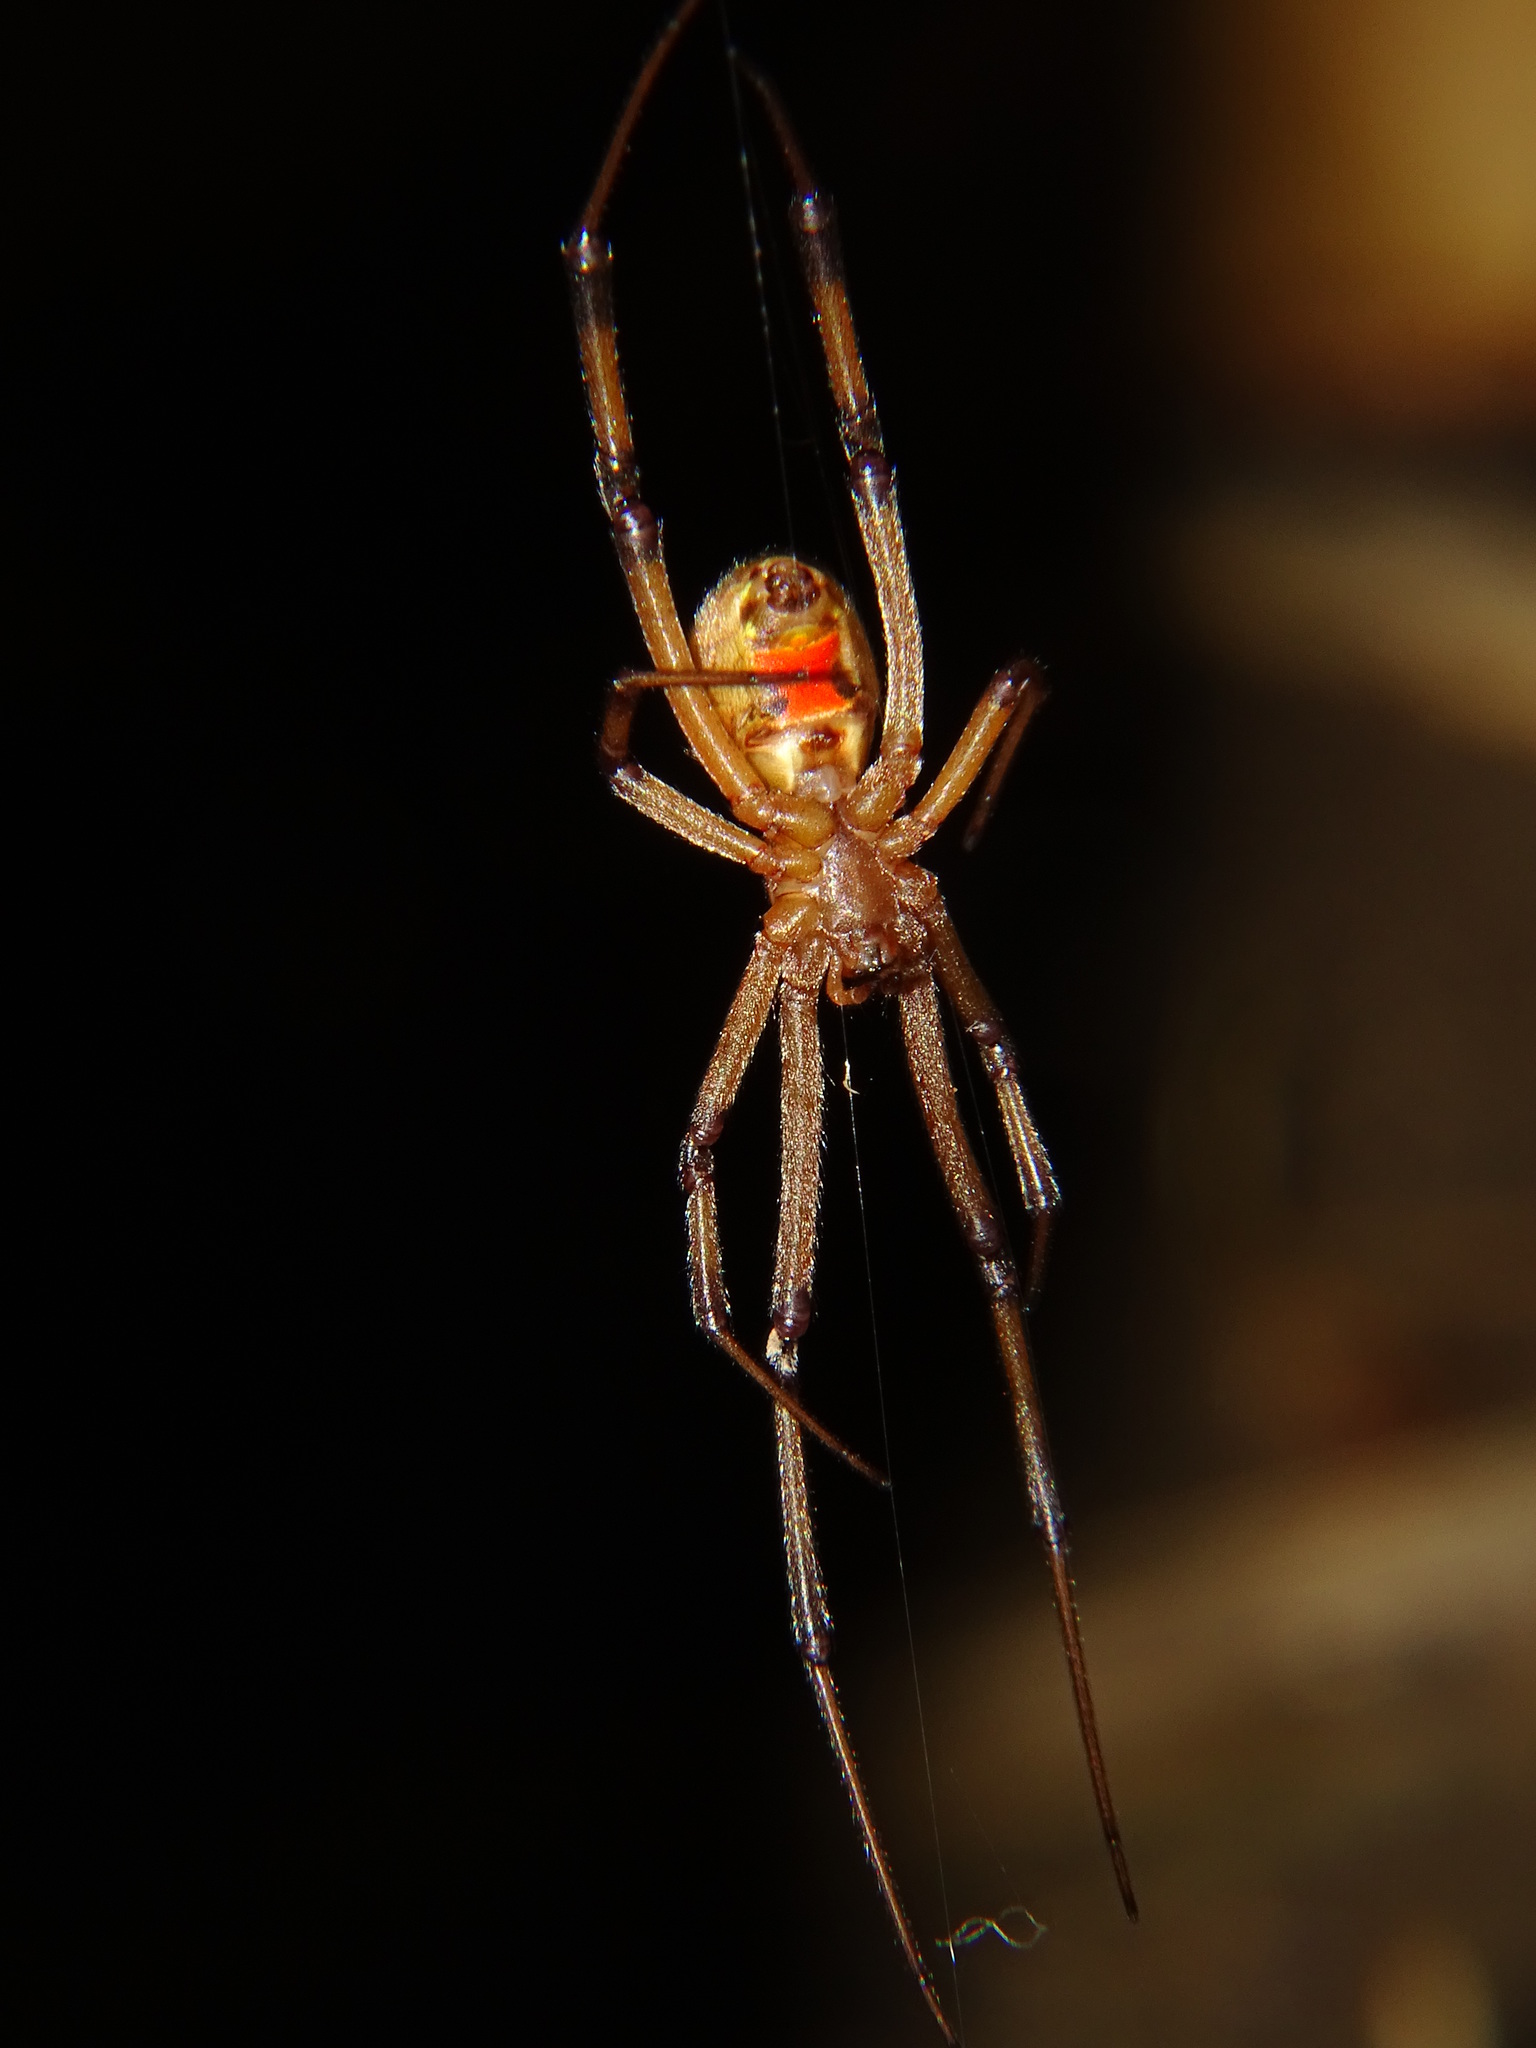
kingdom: Animalia
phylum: Arthropoda
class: Arachnida
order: Araneae
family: Theridiidae
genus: Latrodectus
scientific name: Latrodectus geometricus
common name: Brown widow spider
